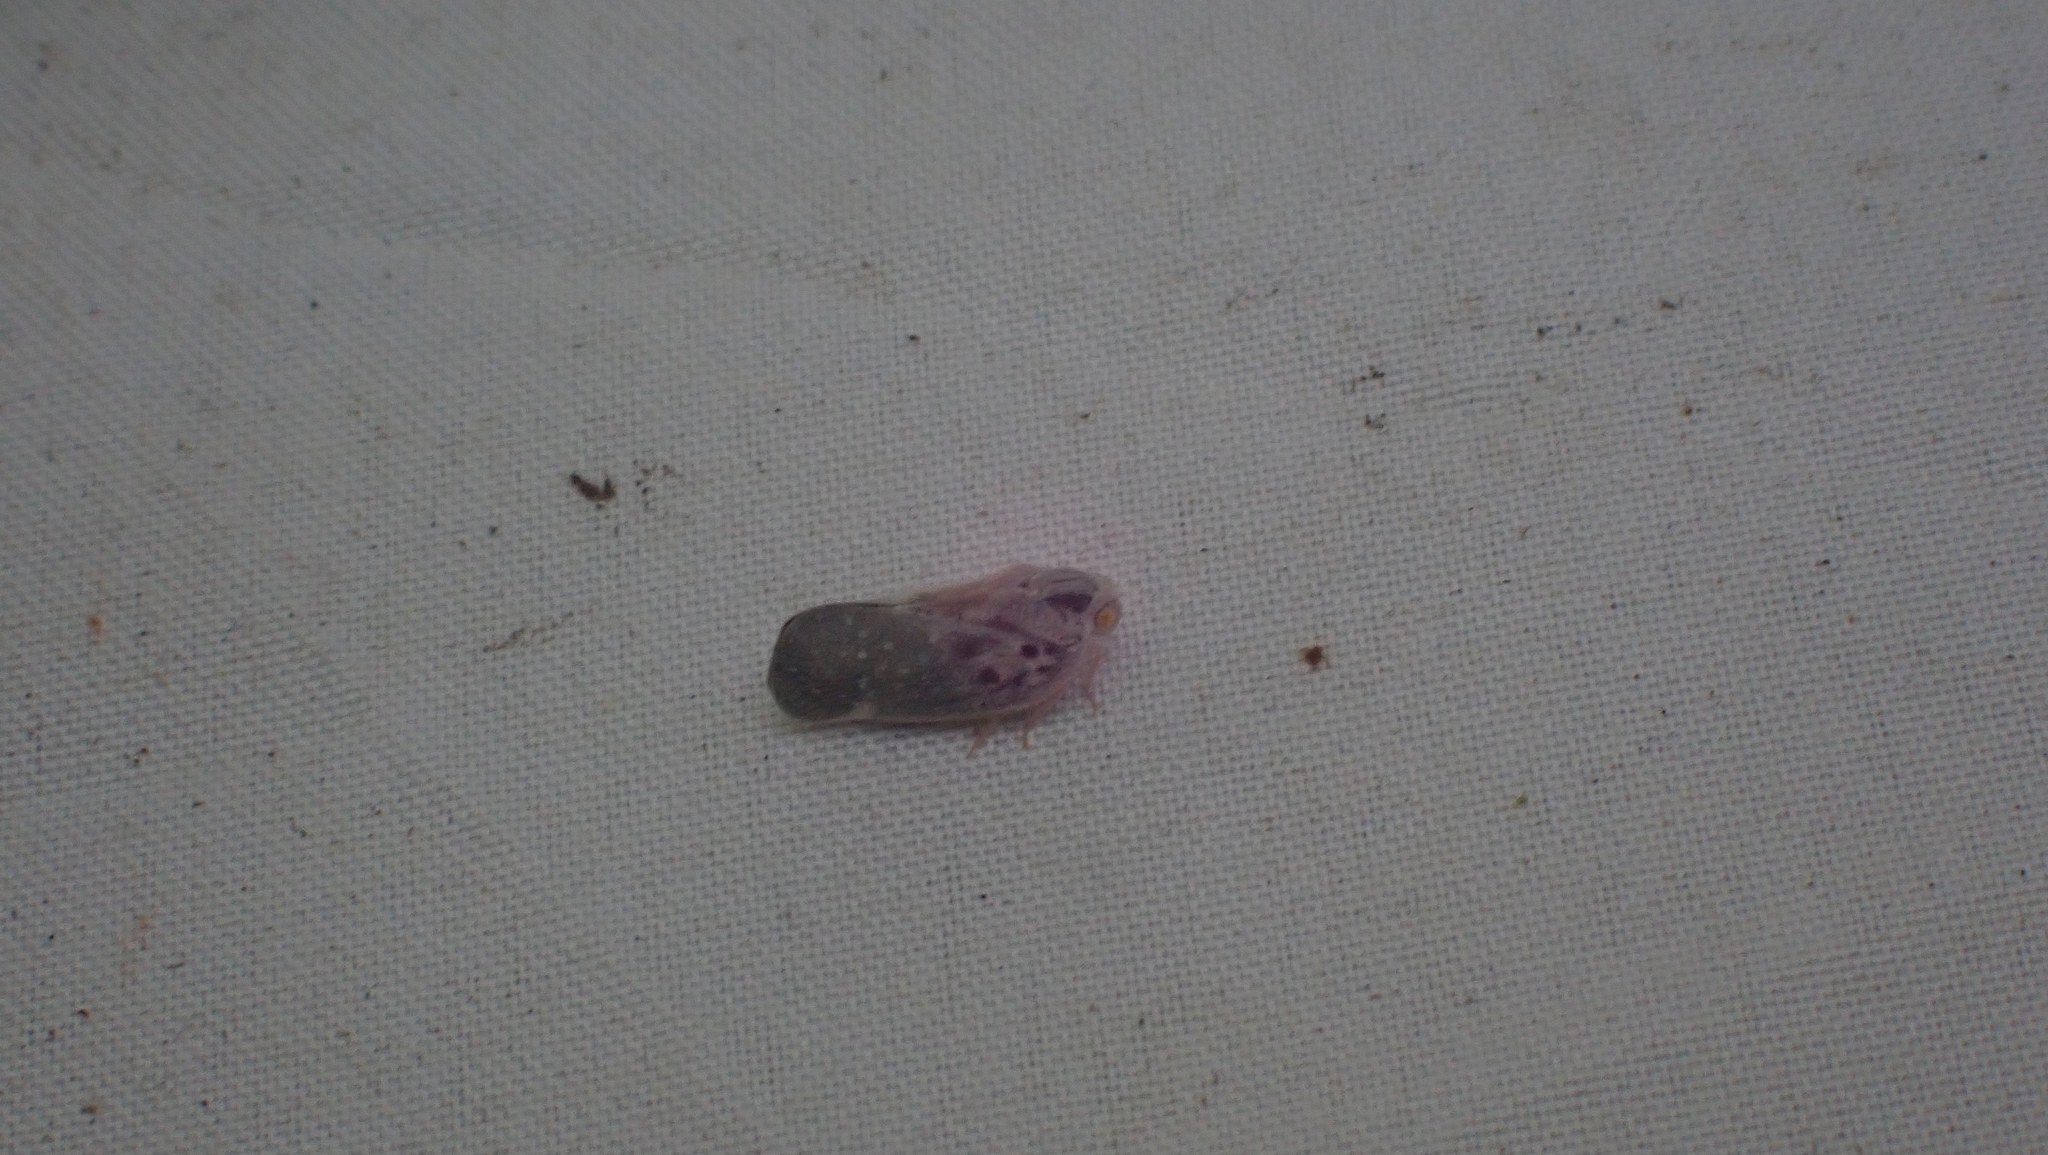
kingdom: Animalia
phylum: Arthropoda
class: Insecta
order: Hemiptera
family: Flatidae
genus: Metcalfa
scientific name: Metcalfa pruinosa
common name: Citrus flatid planthopper
